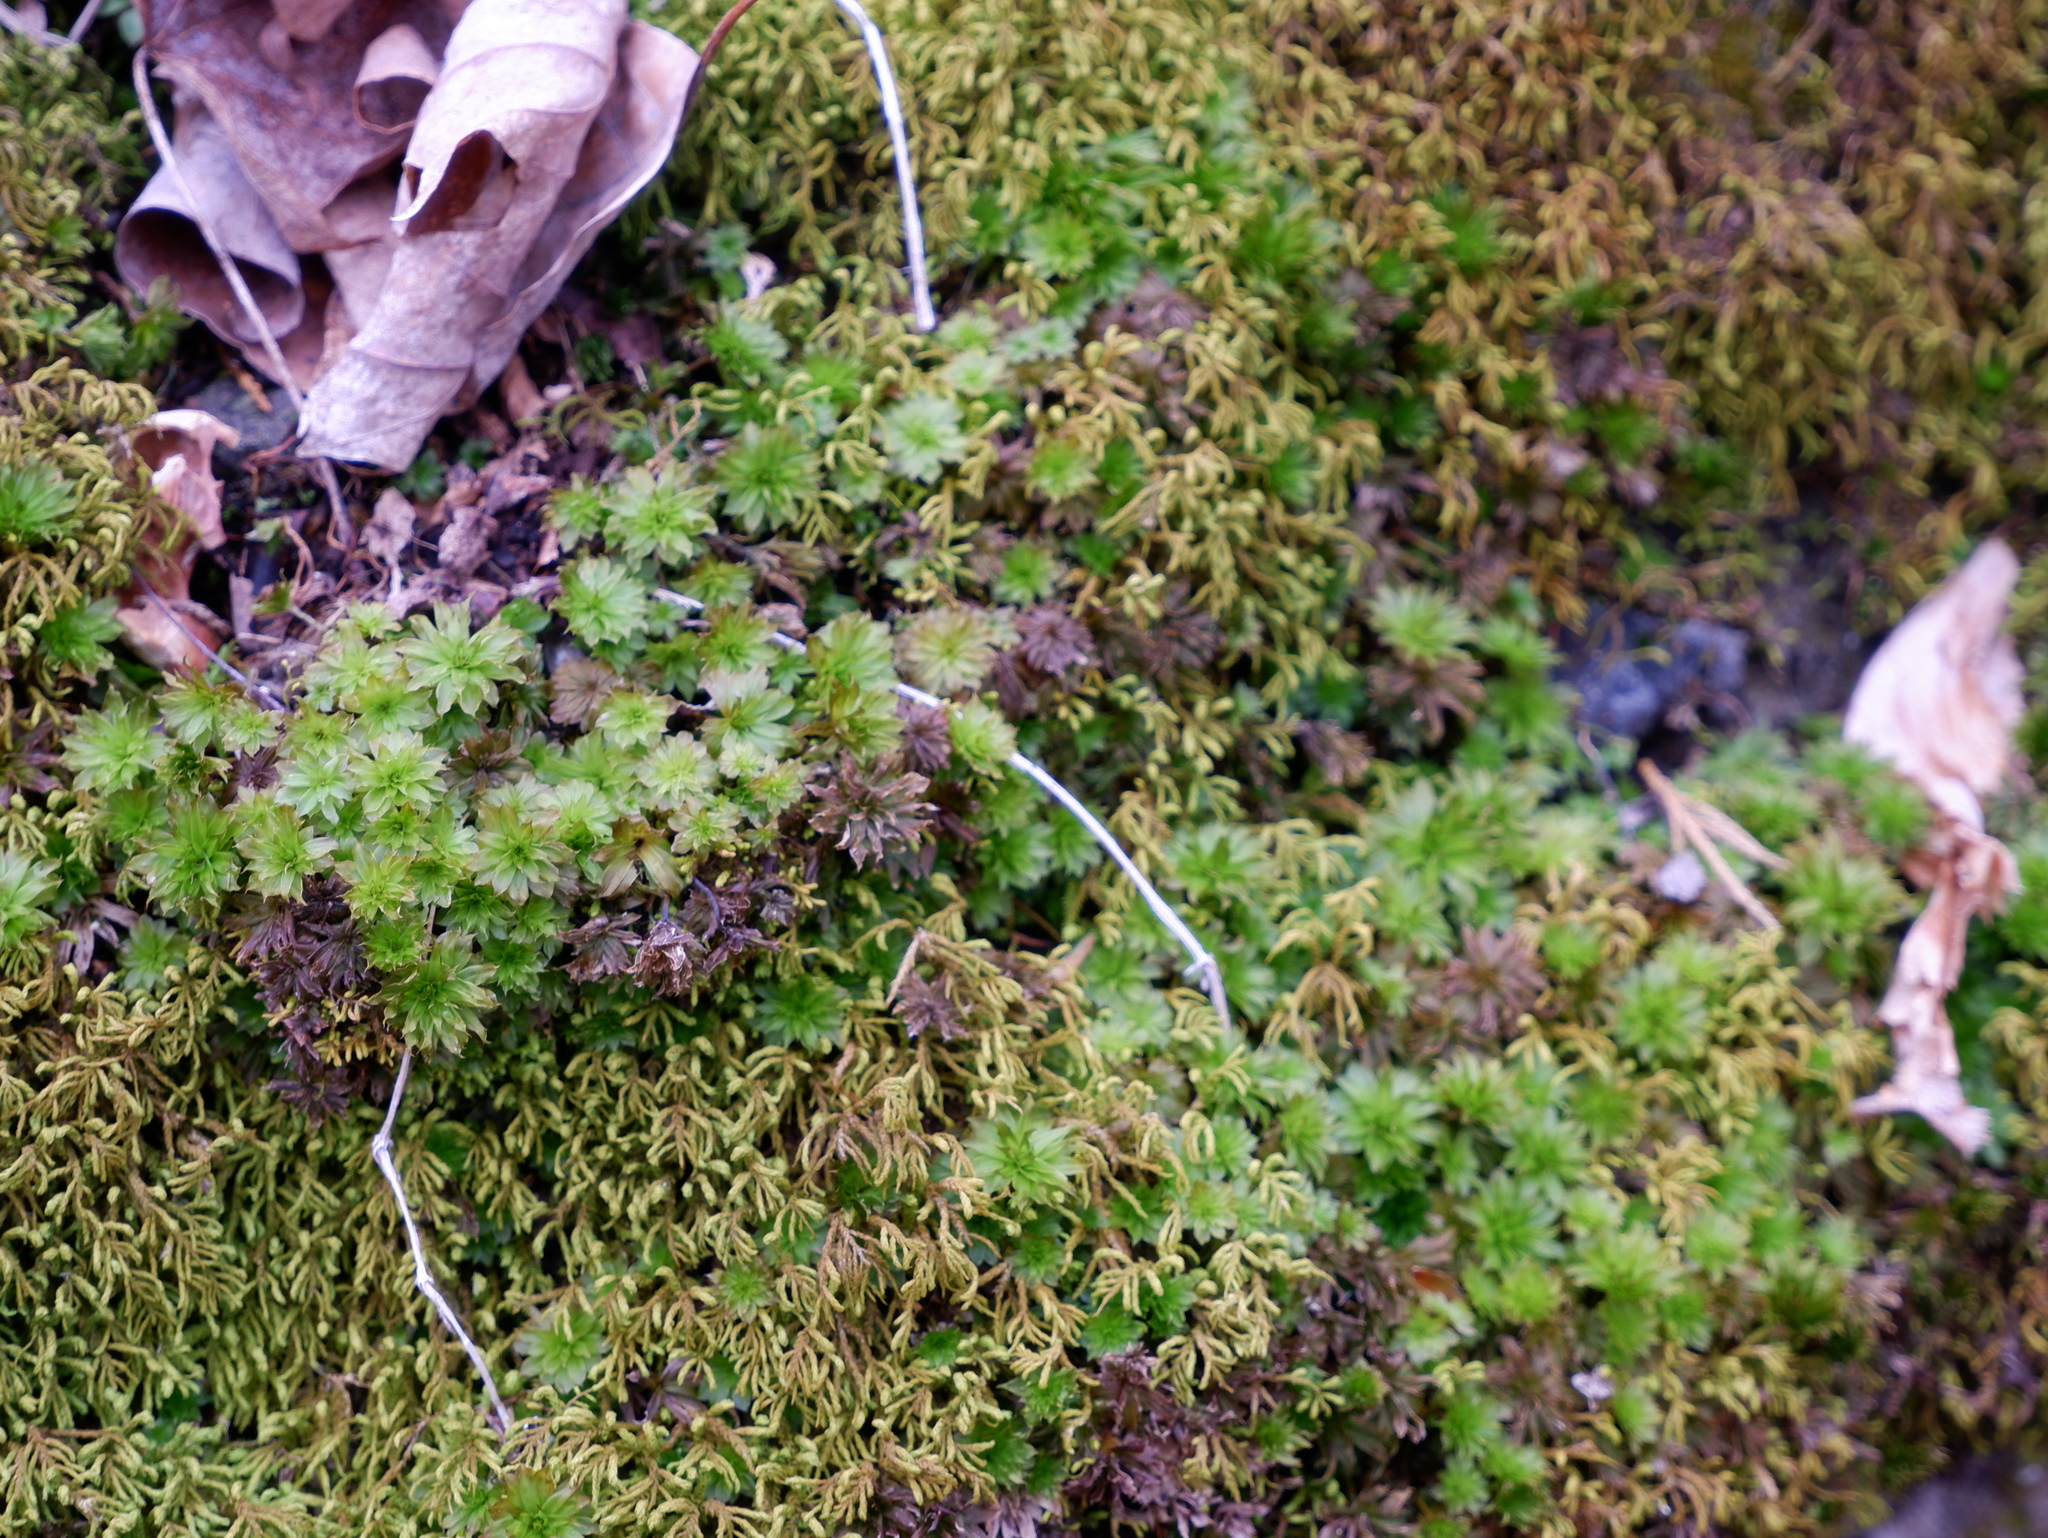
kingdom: Plantae
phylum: Bryophyta
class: Bryopsida
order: Bryales
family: Bryaceae
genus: Rhodobryum
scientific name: Rhodobryum ontariense
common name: Ontario rhodobryum moss
